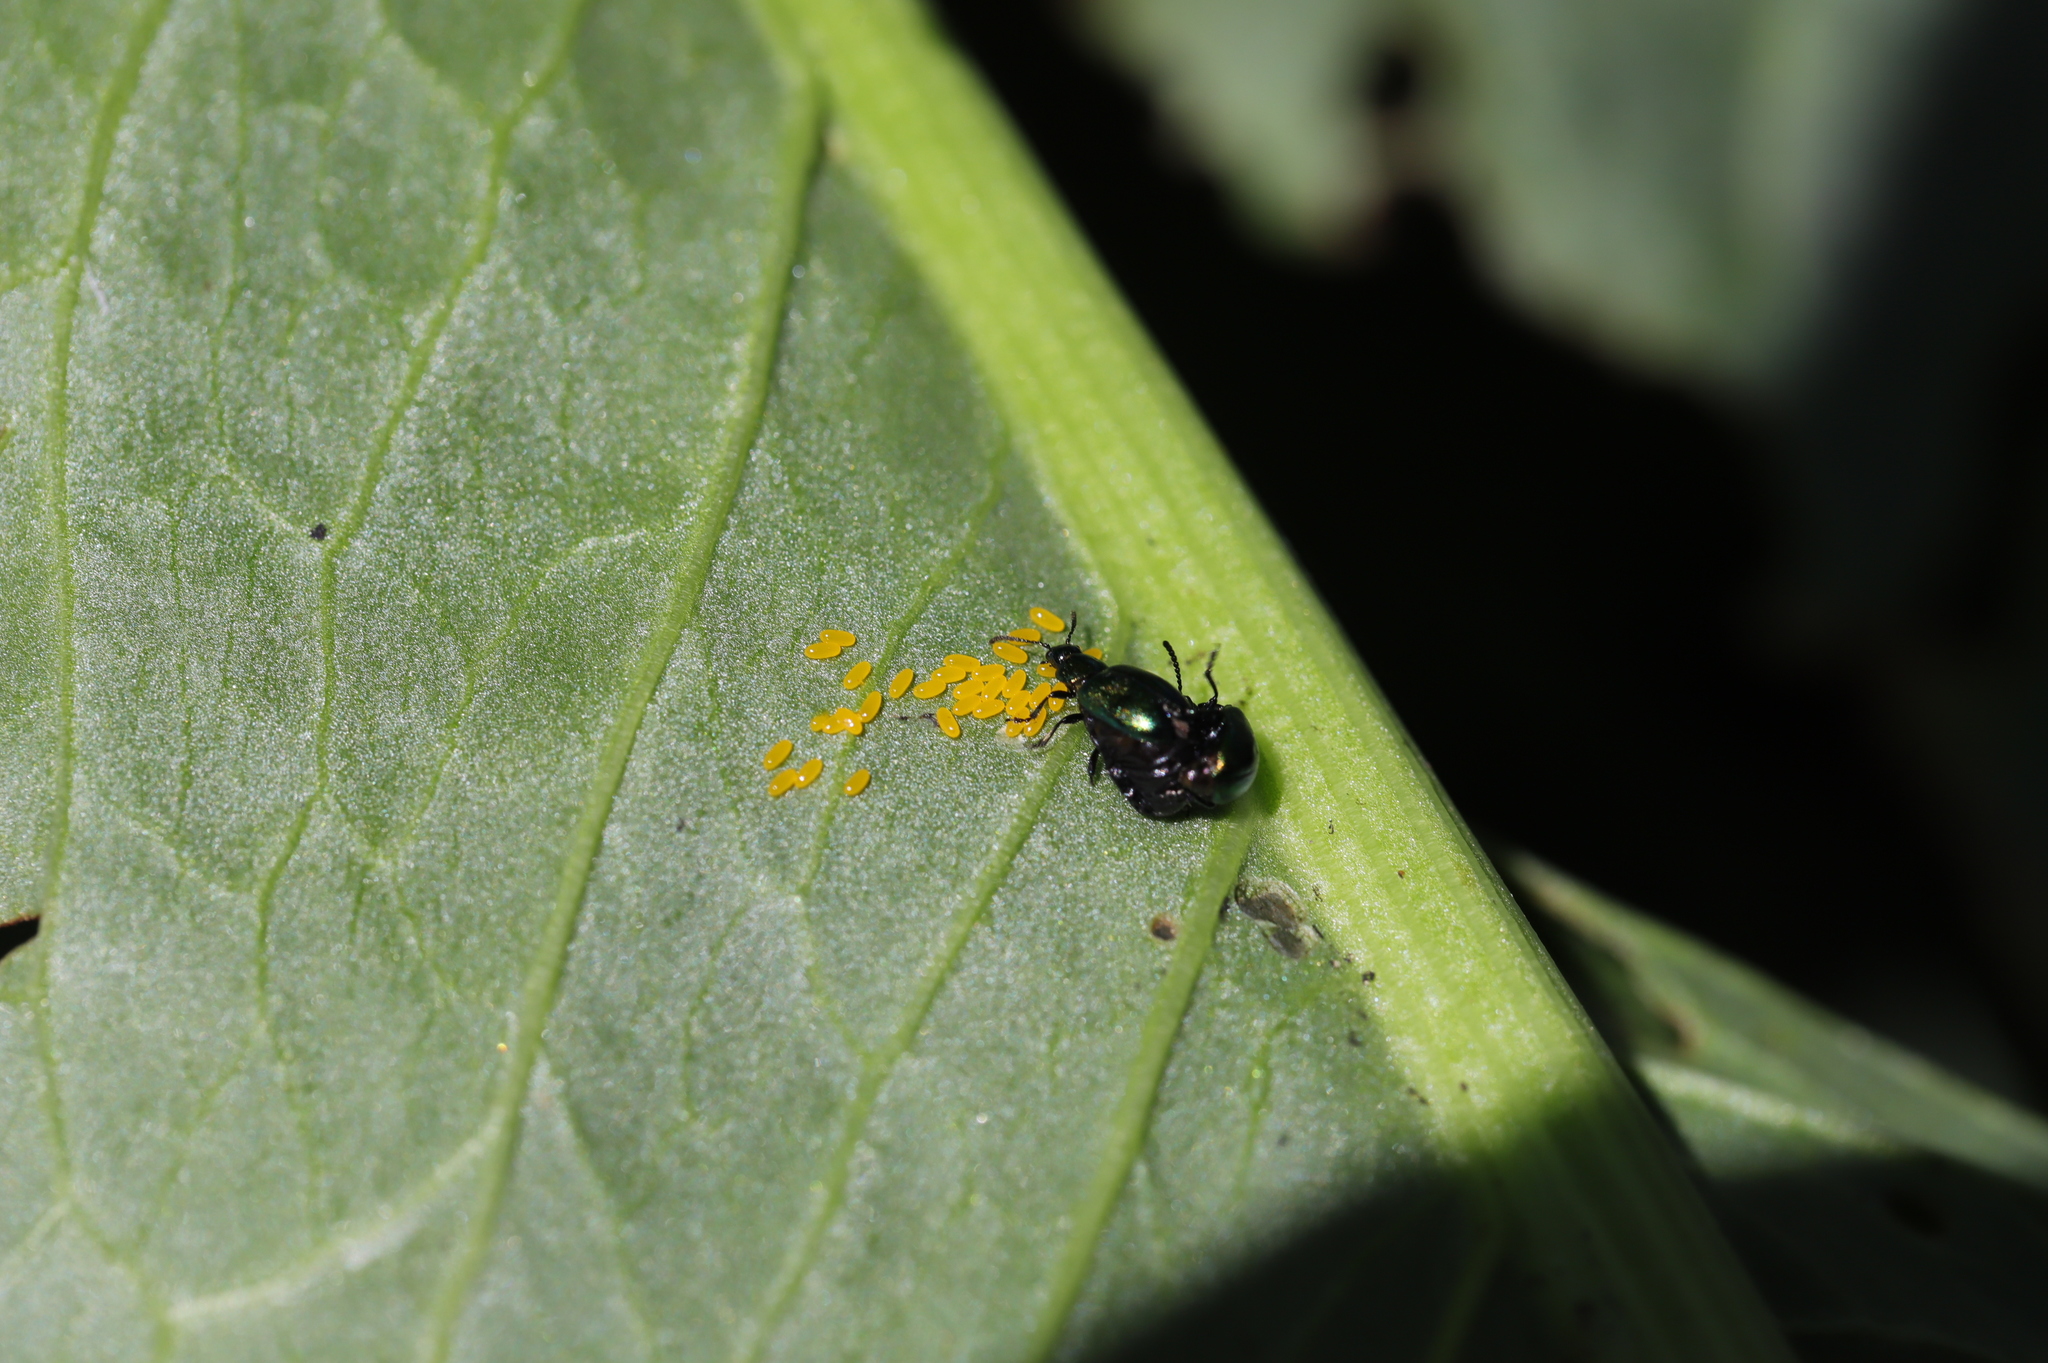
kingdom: Animalia
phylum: Arthropoda
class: Insecta
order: Coleoptera
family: Chrysomelidae
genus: Gastrophysa
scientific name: Gastrophysa cyanea
